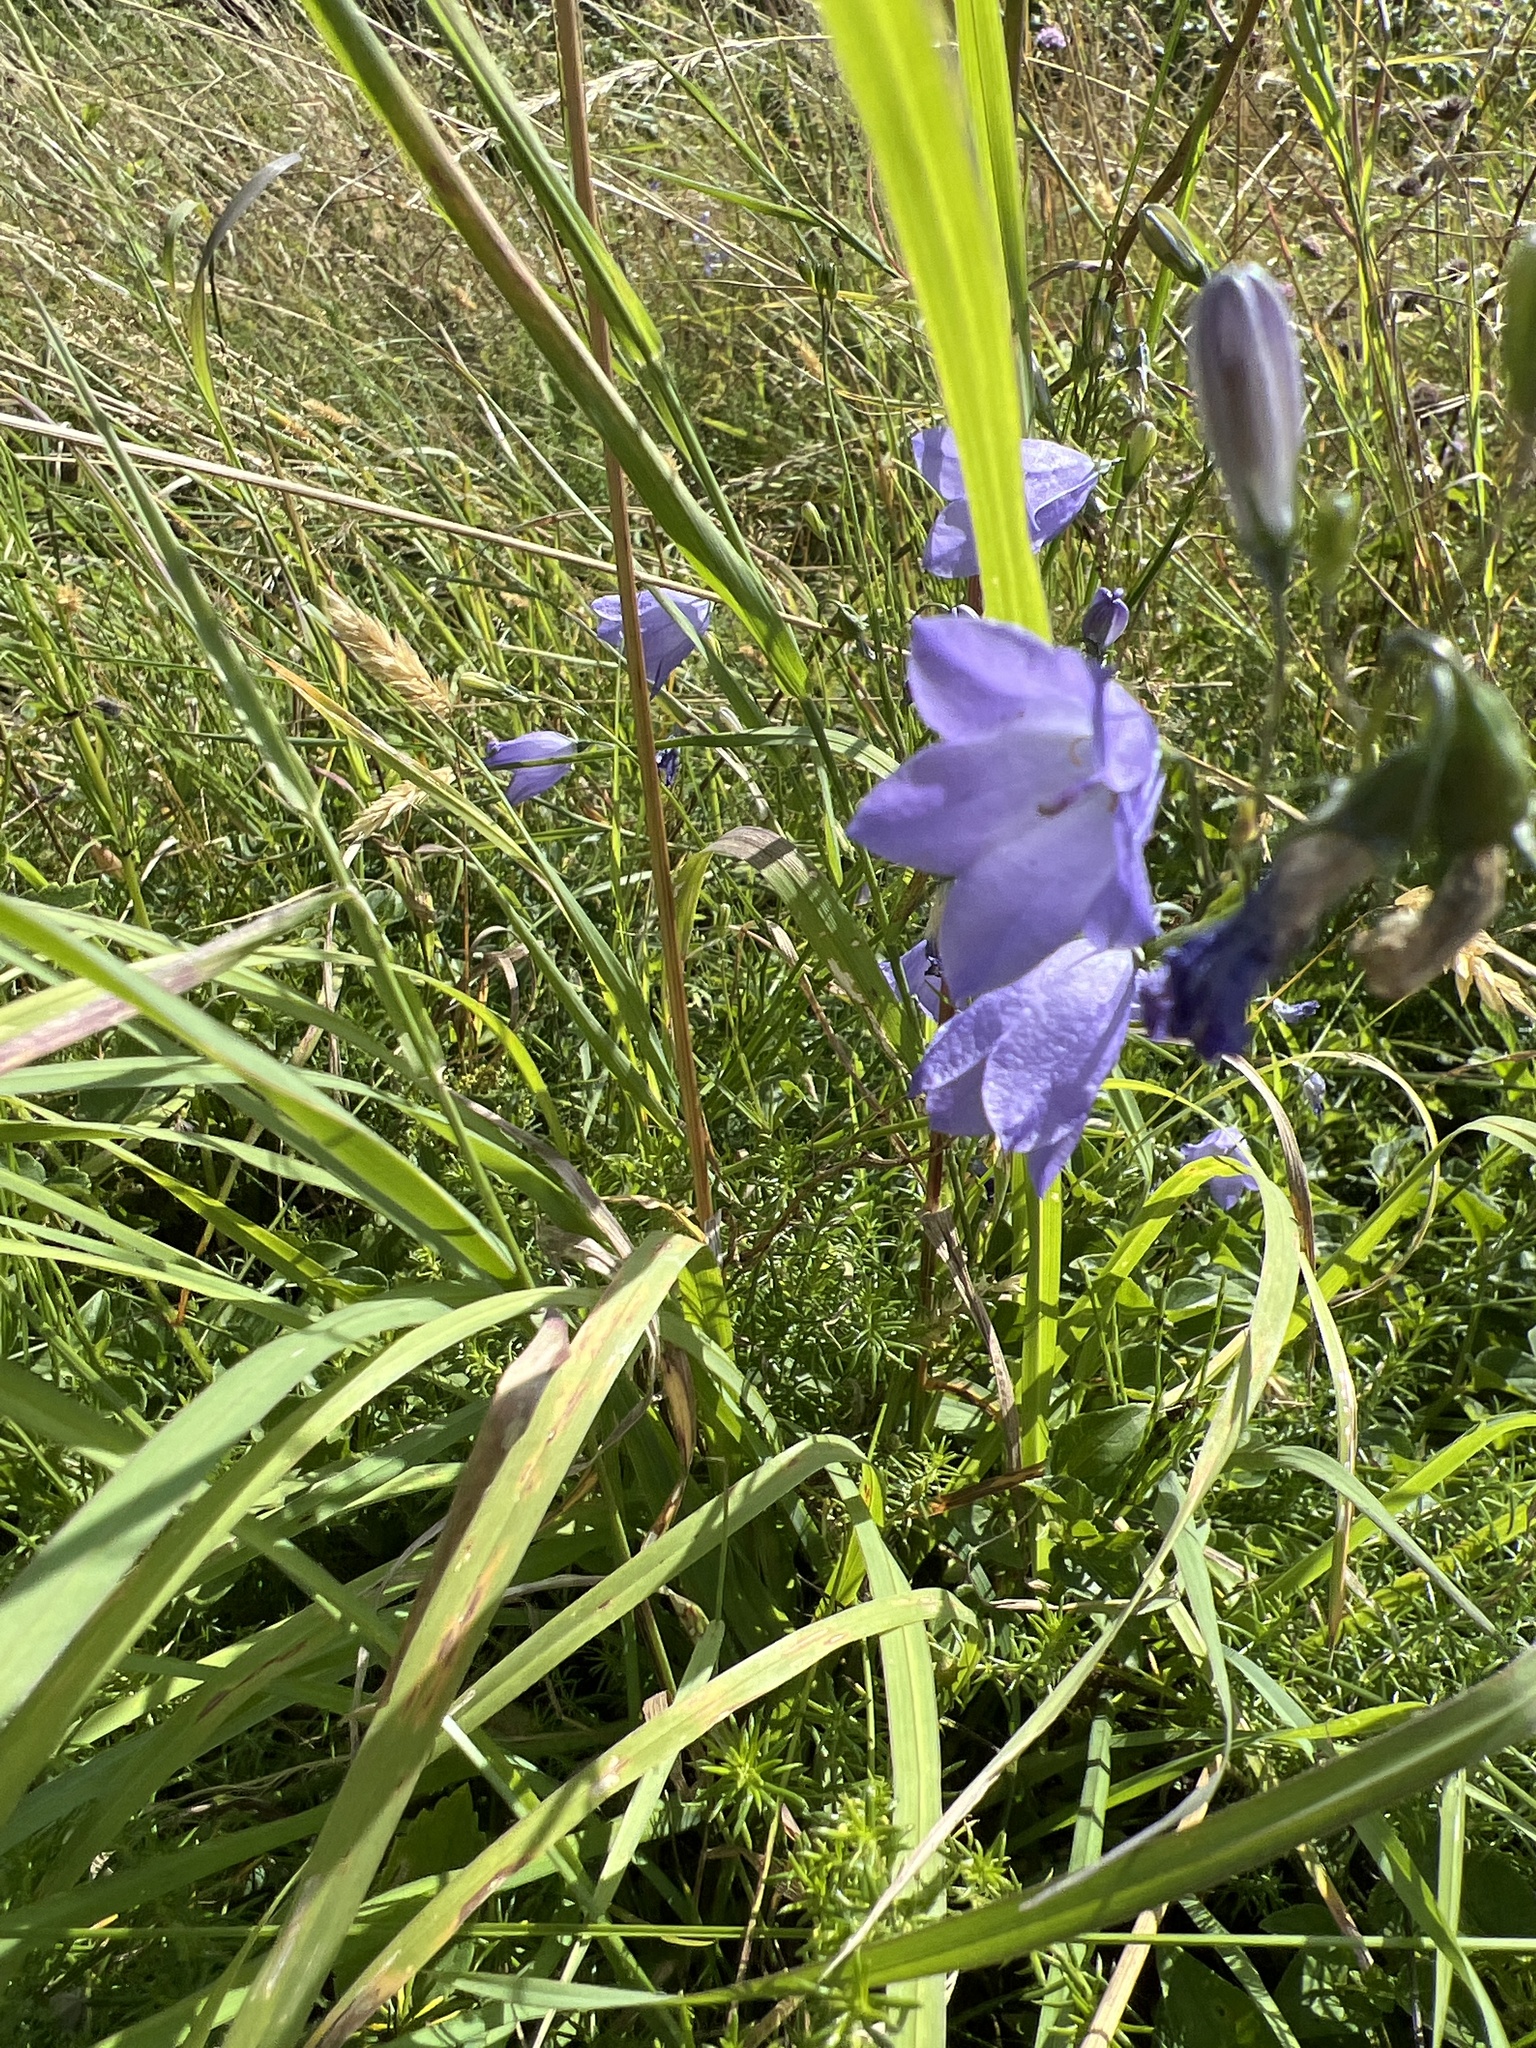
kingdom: Plantae
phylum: Tracheophyta
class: Magnoliopsida
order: Asterales
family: Campanulaceae
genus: Campanula
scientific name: Campanula rotundifolia
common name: Harebell
